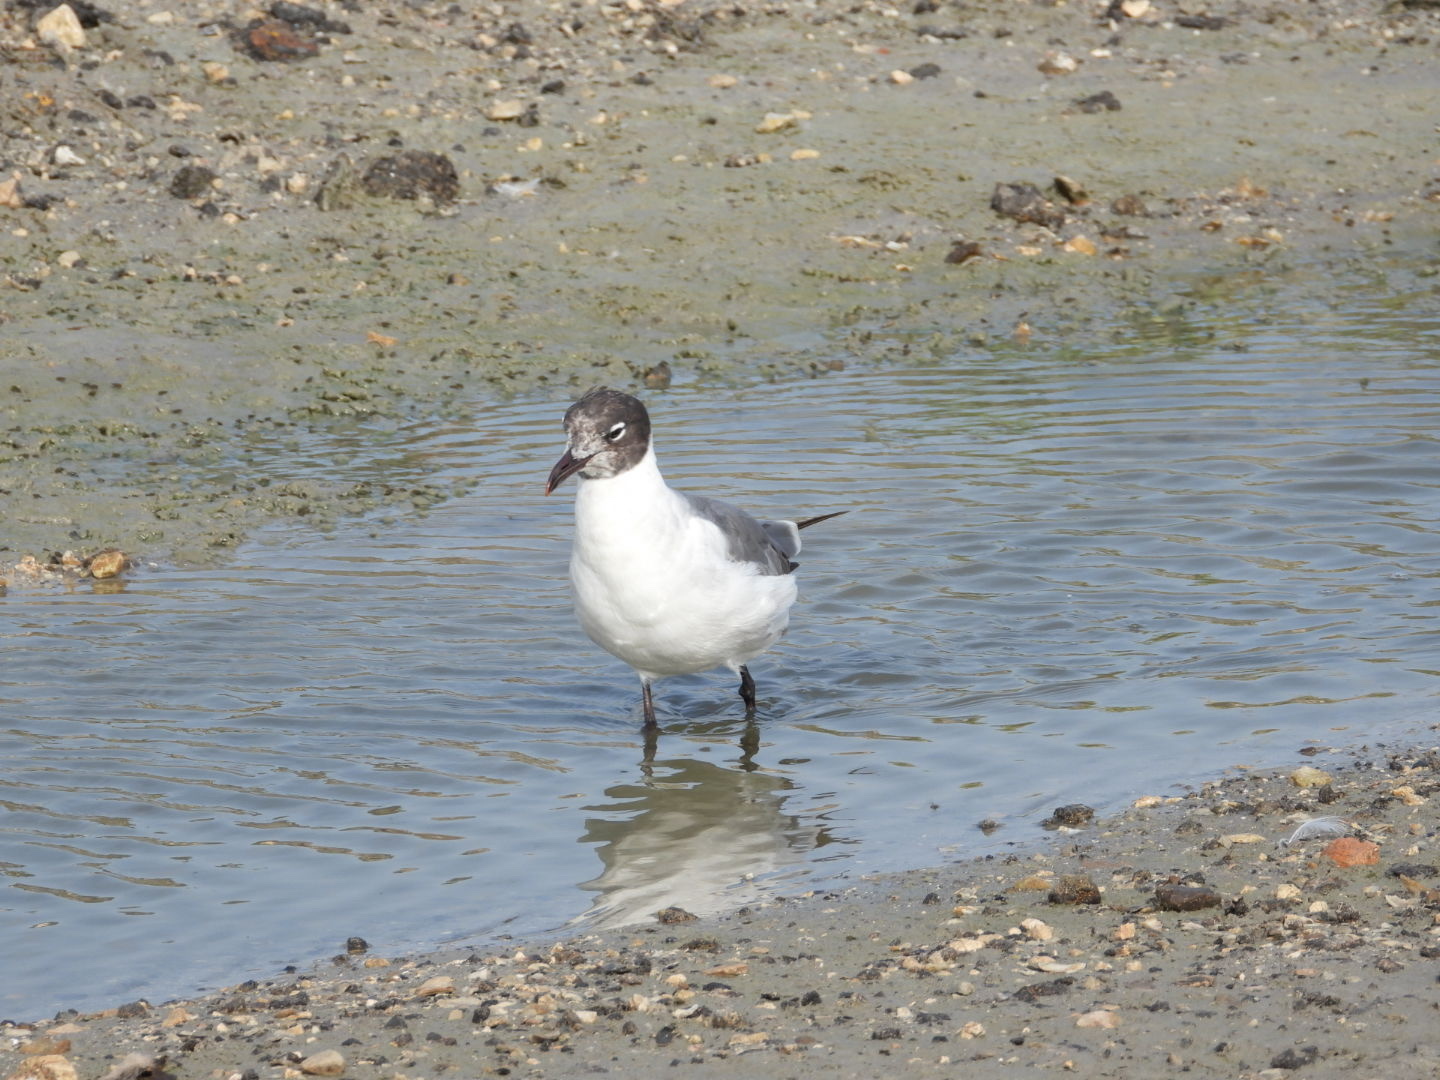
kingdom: Animalia
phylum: Chordata
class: Aves
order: Charadriiformes
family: Laridae
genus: Leucophaeus
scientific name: Leucophaeus atricilla
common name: Laughing gull
